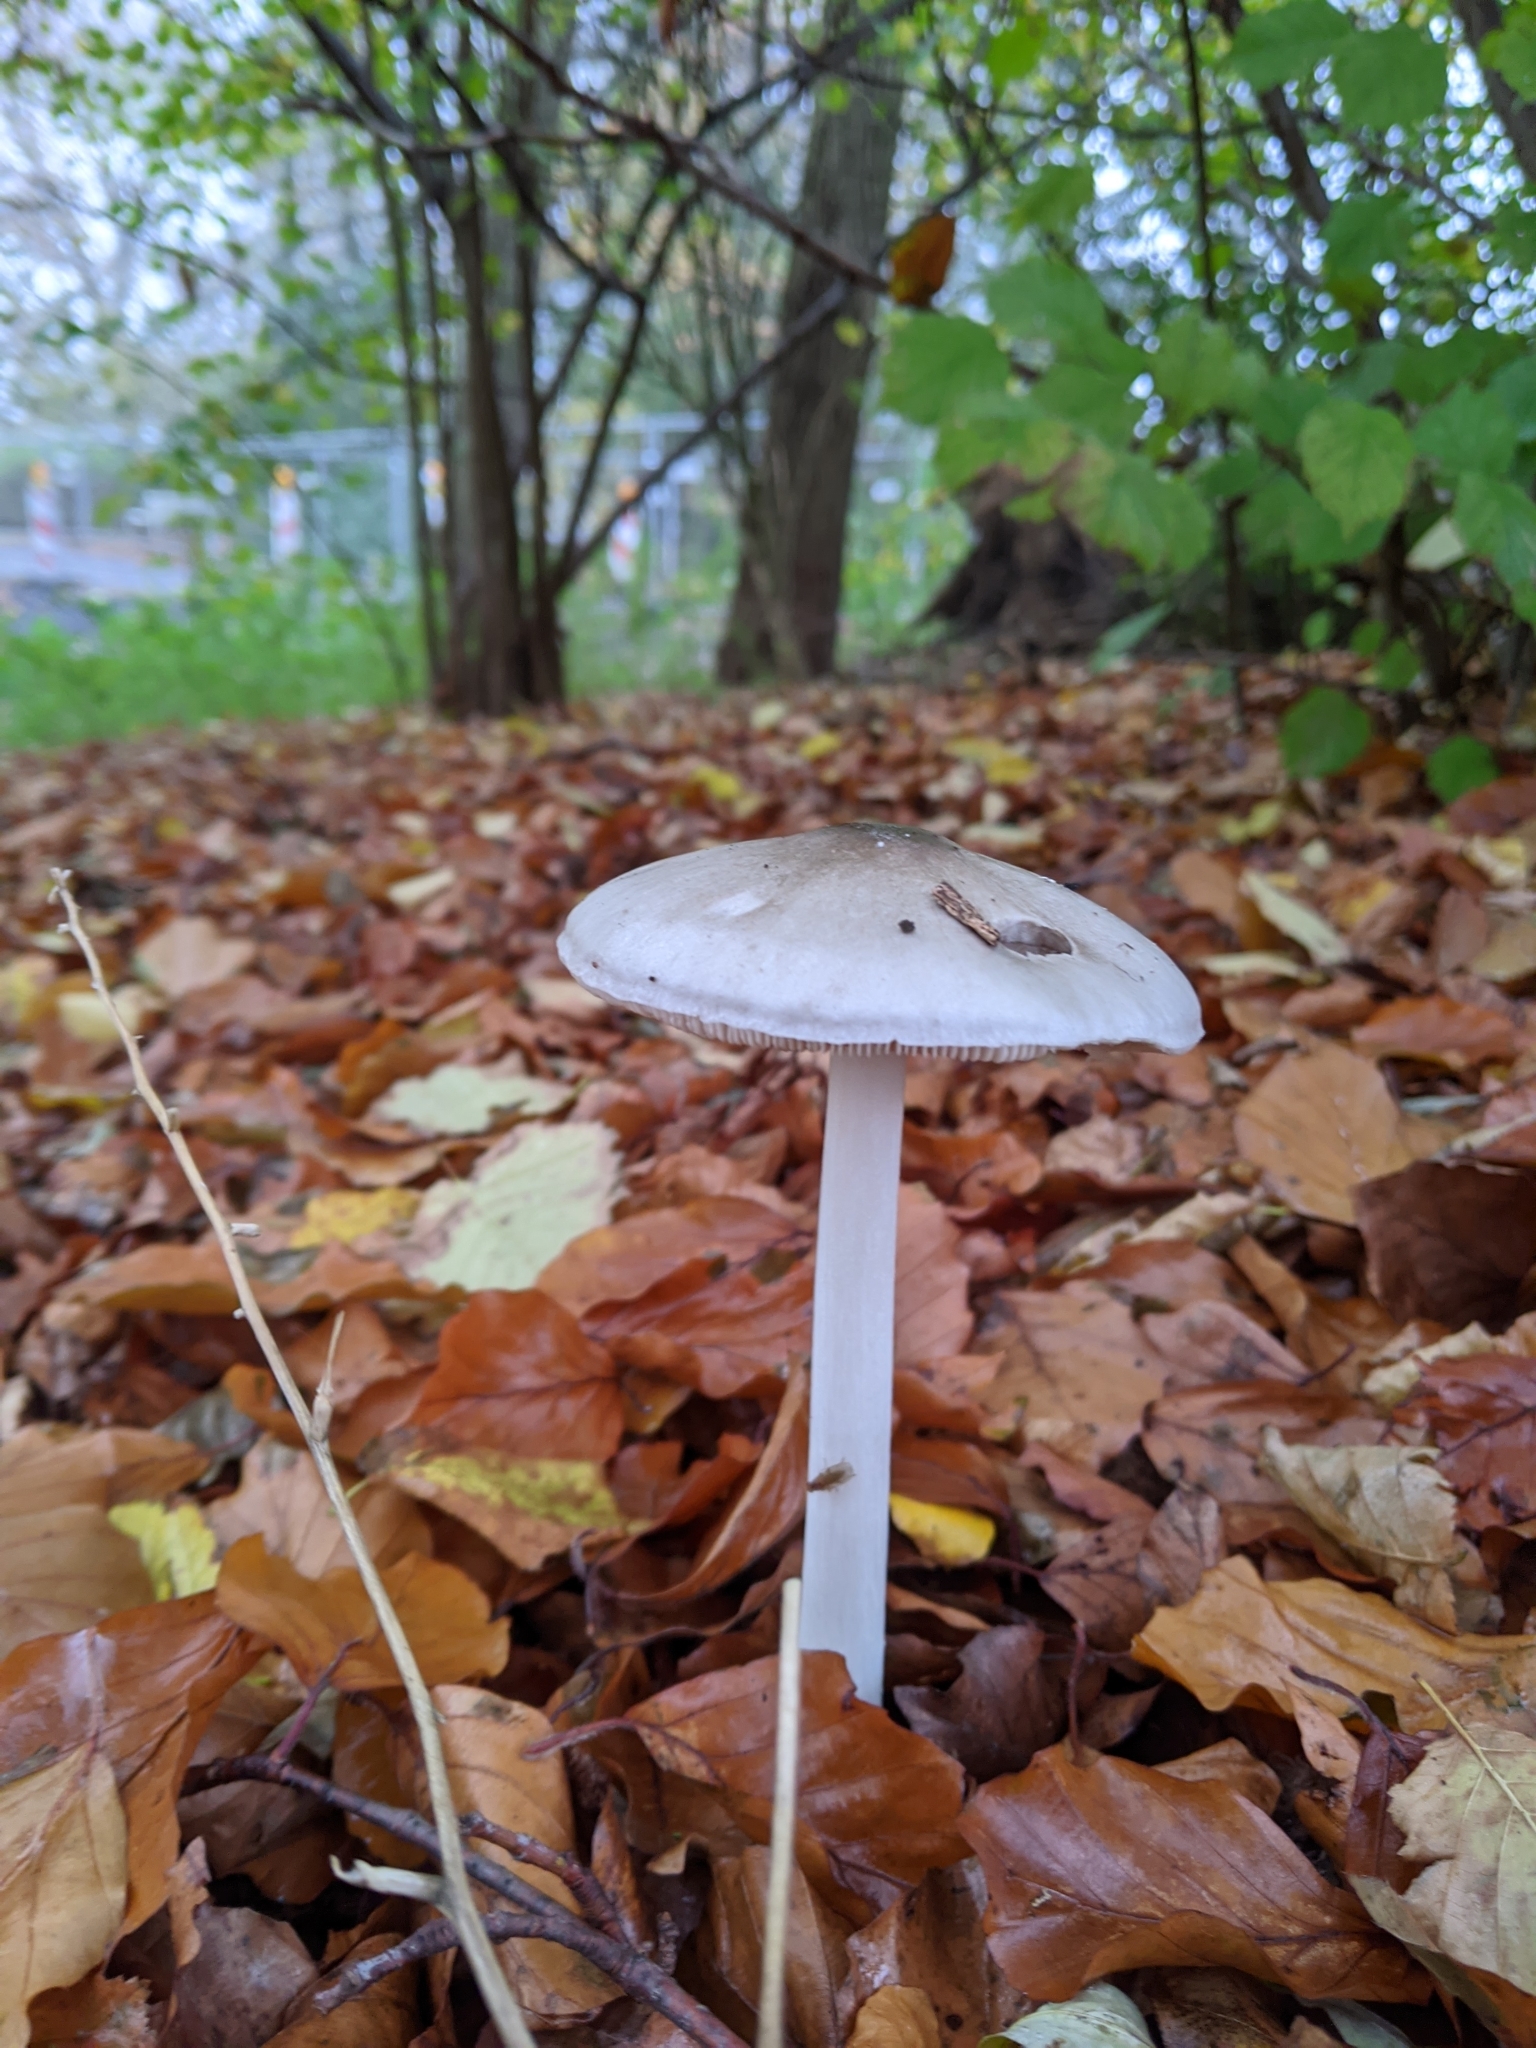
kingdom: Fungi
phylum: Basidiomycota
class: Agaricomycetes
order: Agaricales
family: Pluteaceae
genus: Volvopluteus
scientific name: Volvopluteus gloiocephalus
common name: Stubble rosegill
